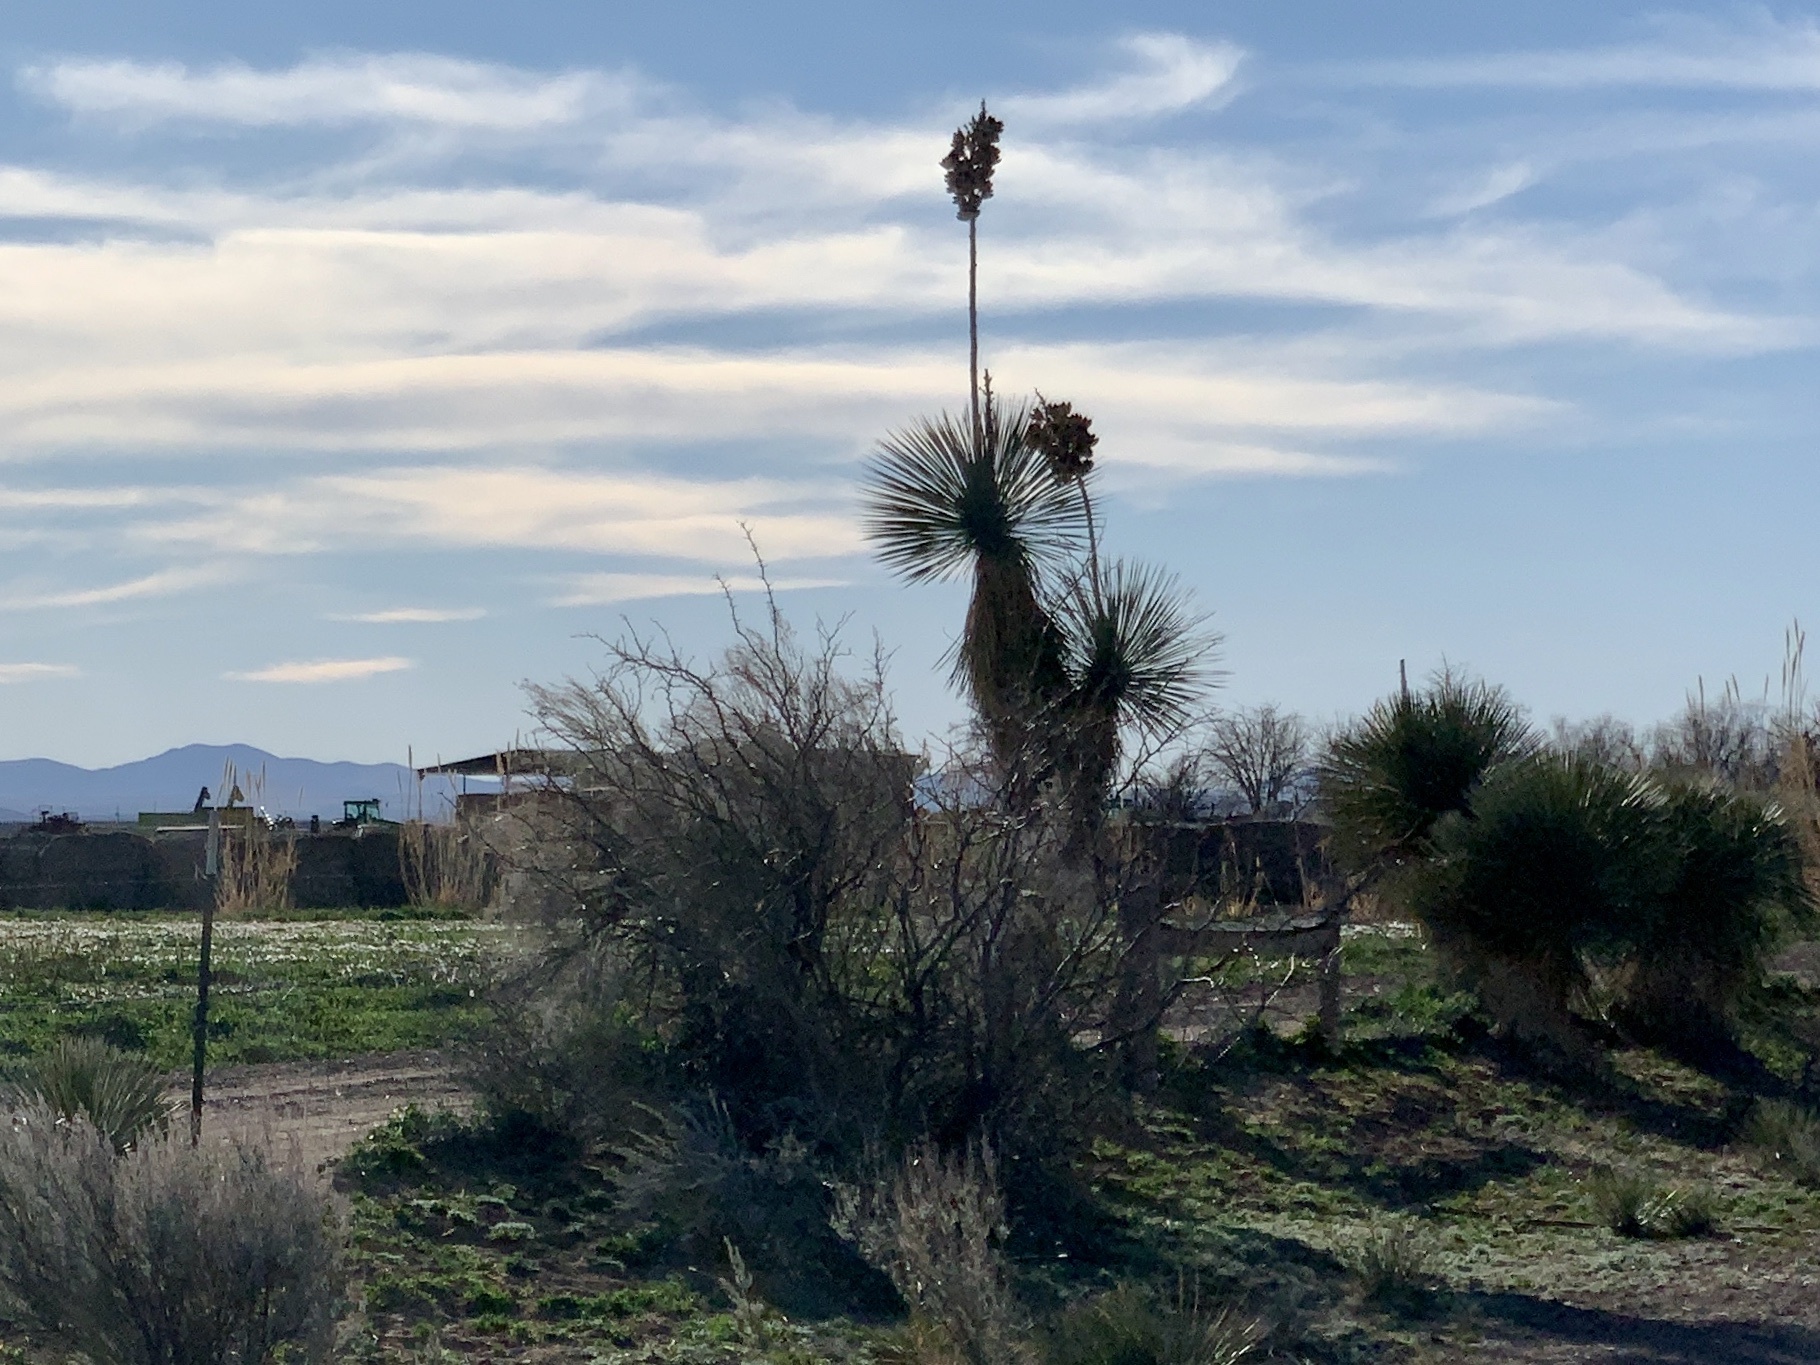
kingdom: Plantae
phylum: Tracheophyta
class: Liliopsida
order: Asparagales
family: Asparagaceae
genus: Yucca
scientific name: Yucca elata
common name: Palmella
